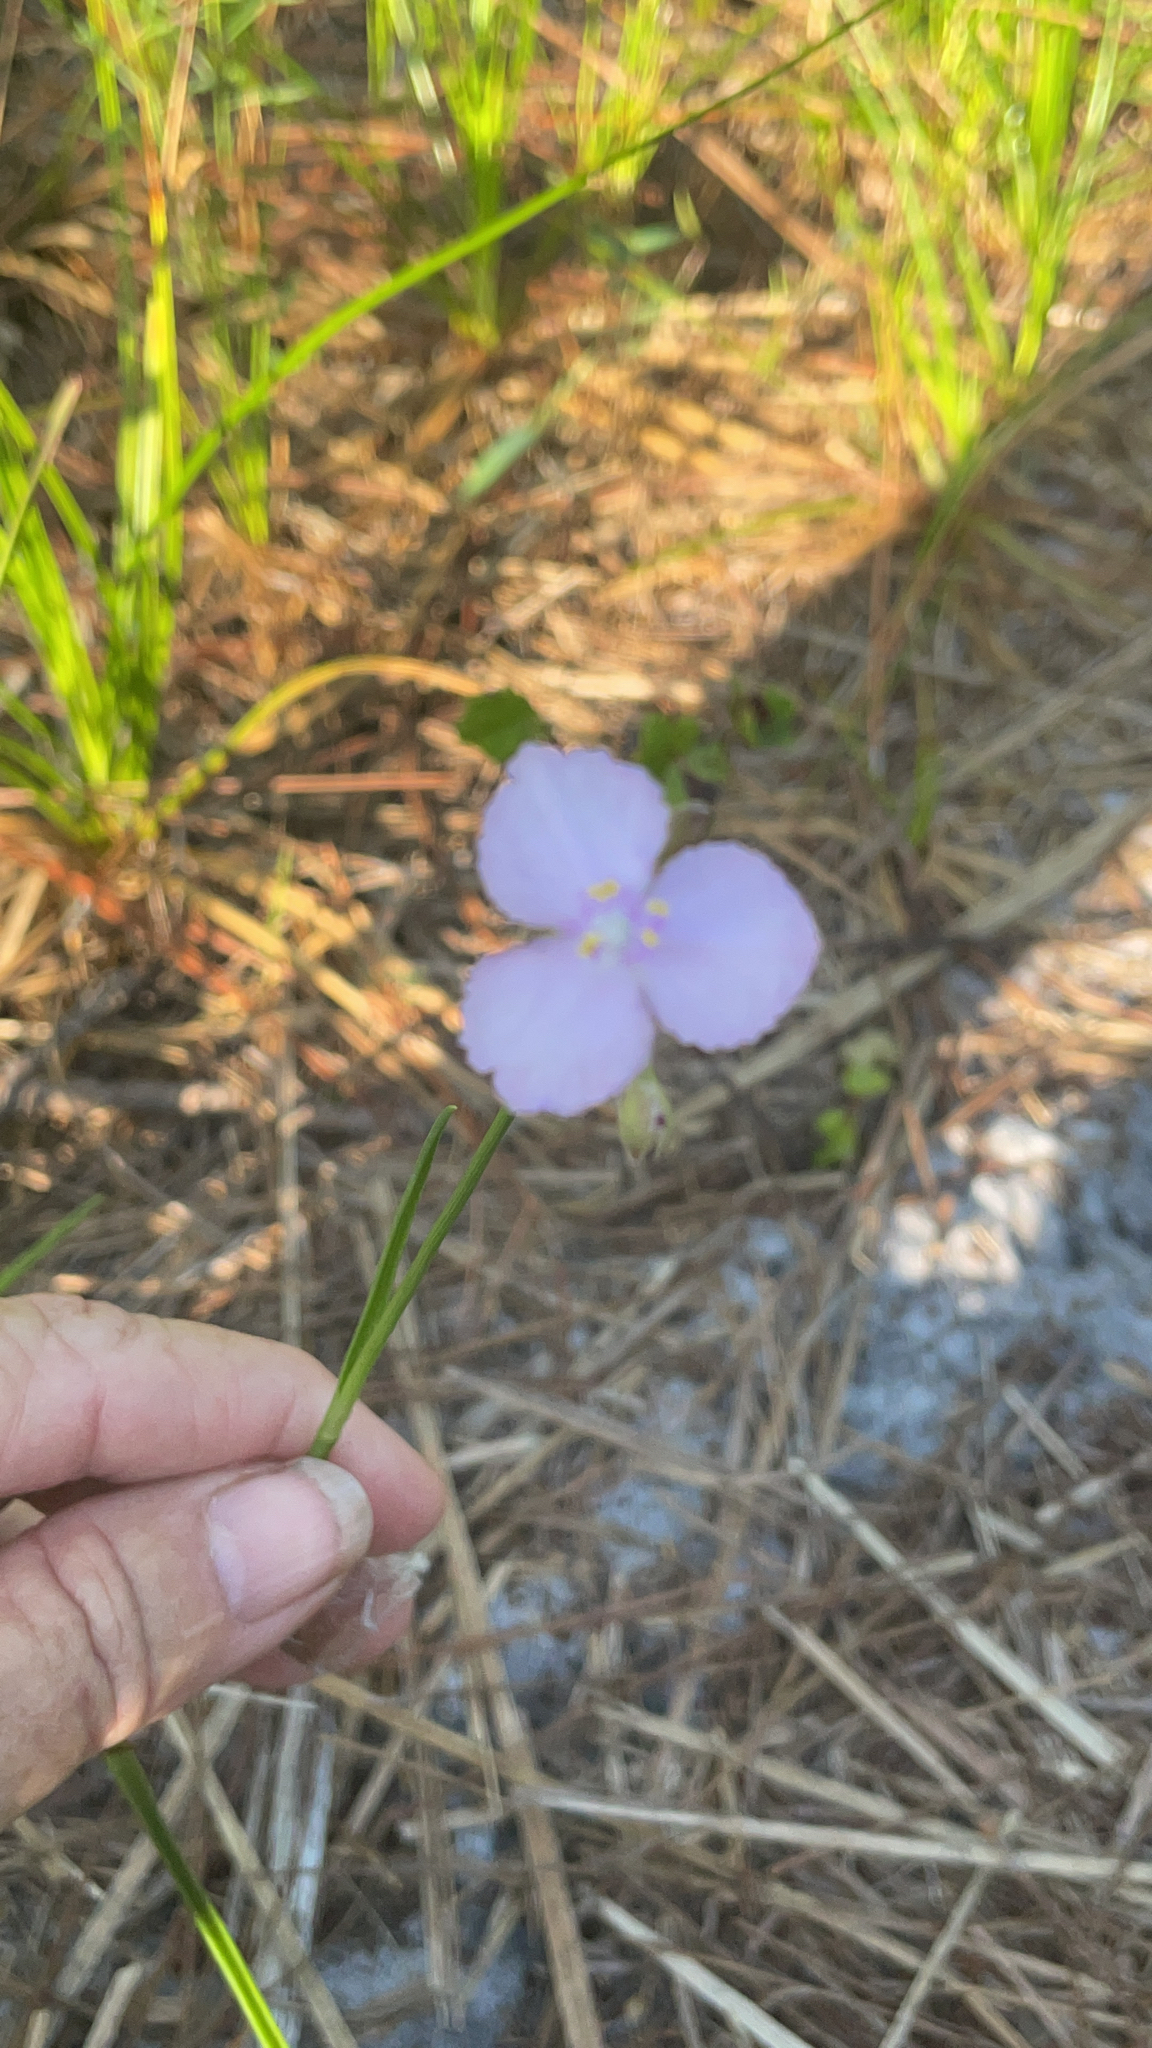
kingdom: Plantae
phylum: Tracheophyta
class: Liliopsida
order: Commelinales
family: Commelinaceae
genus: Callisia
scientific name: Callisia ornata
